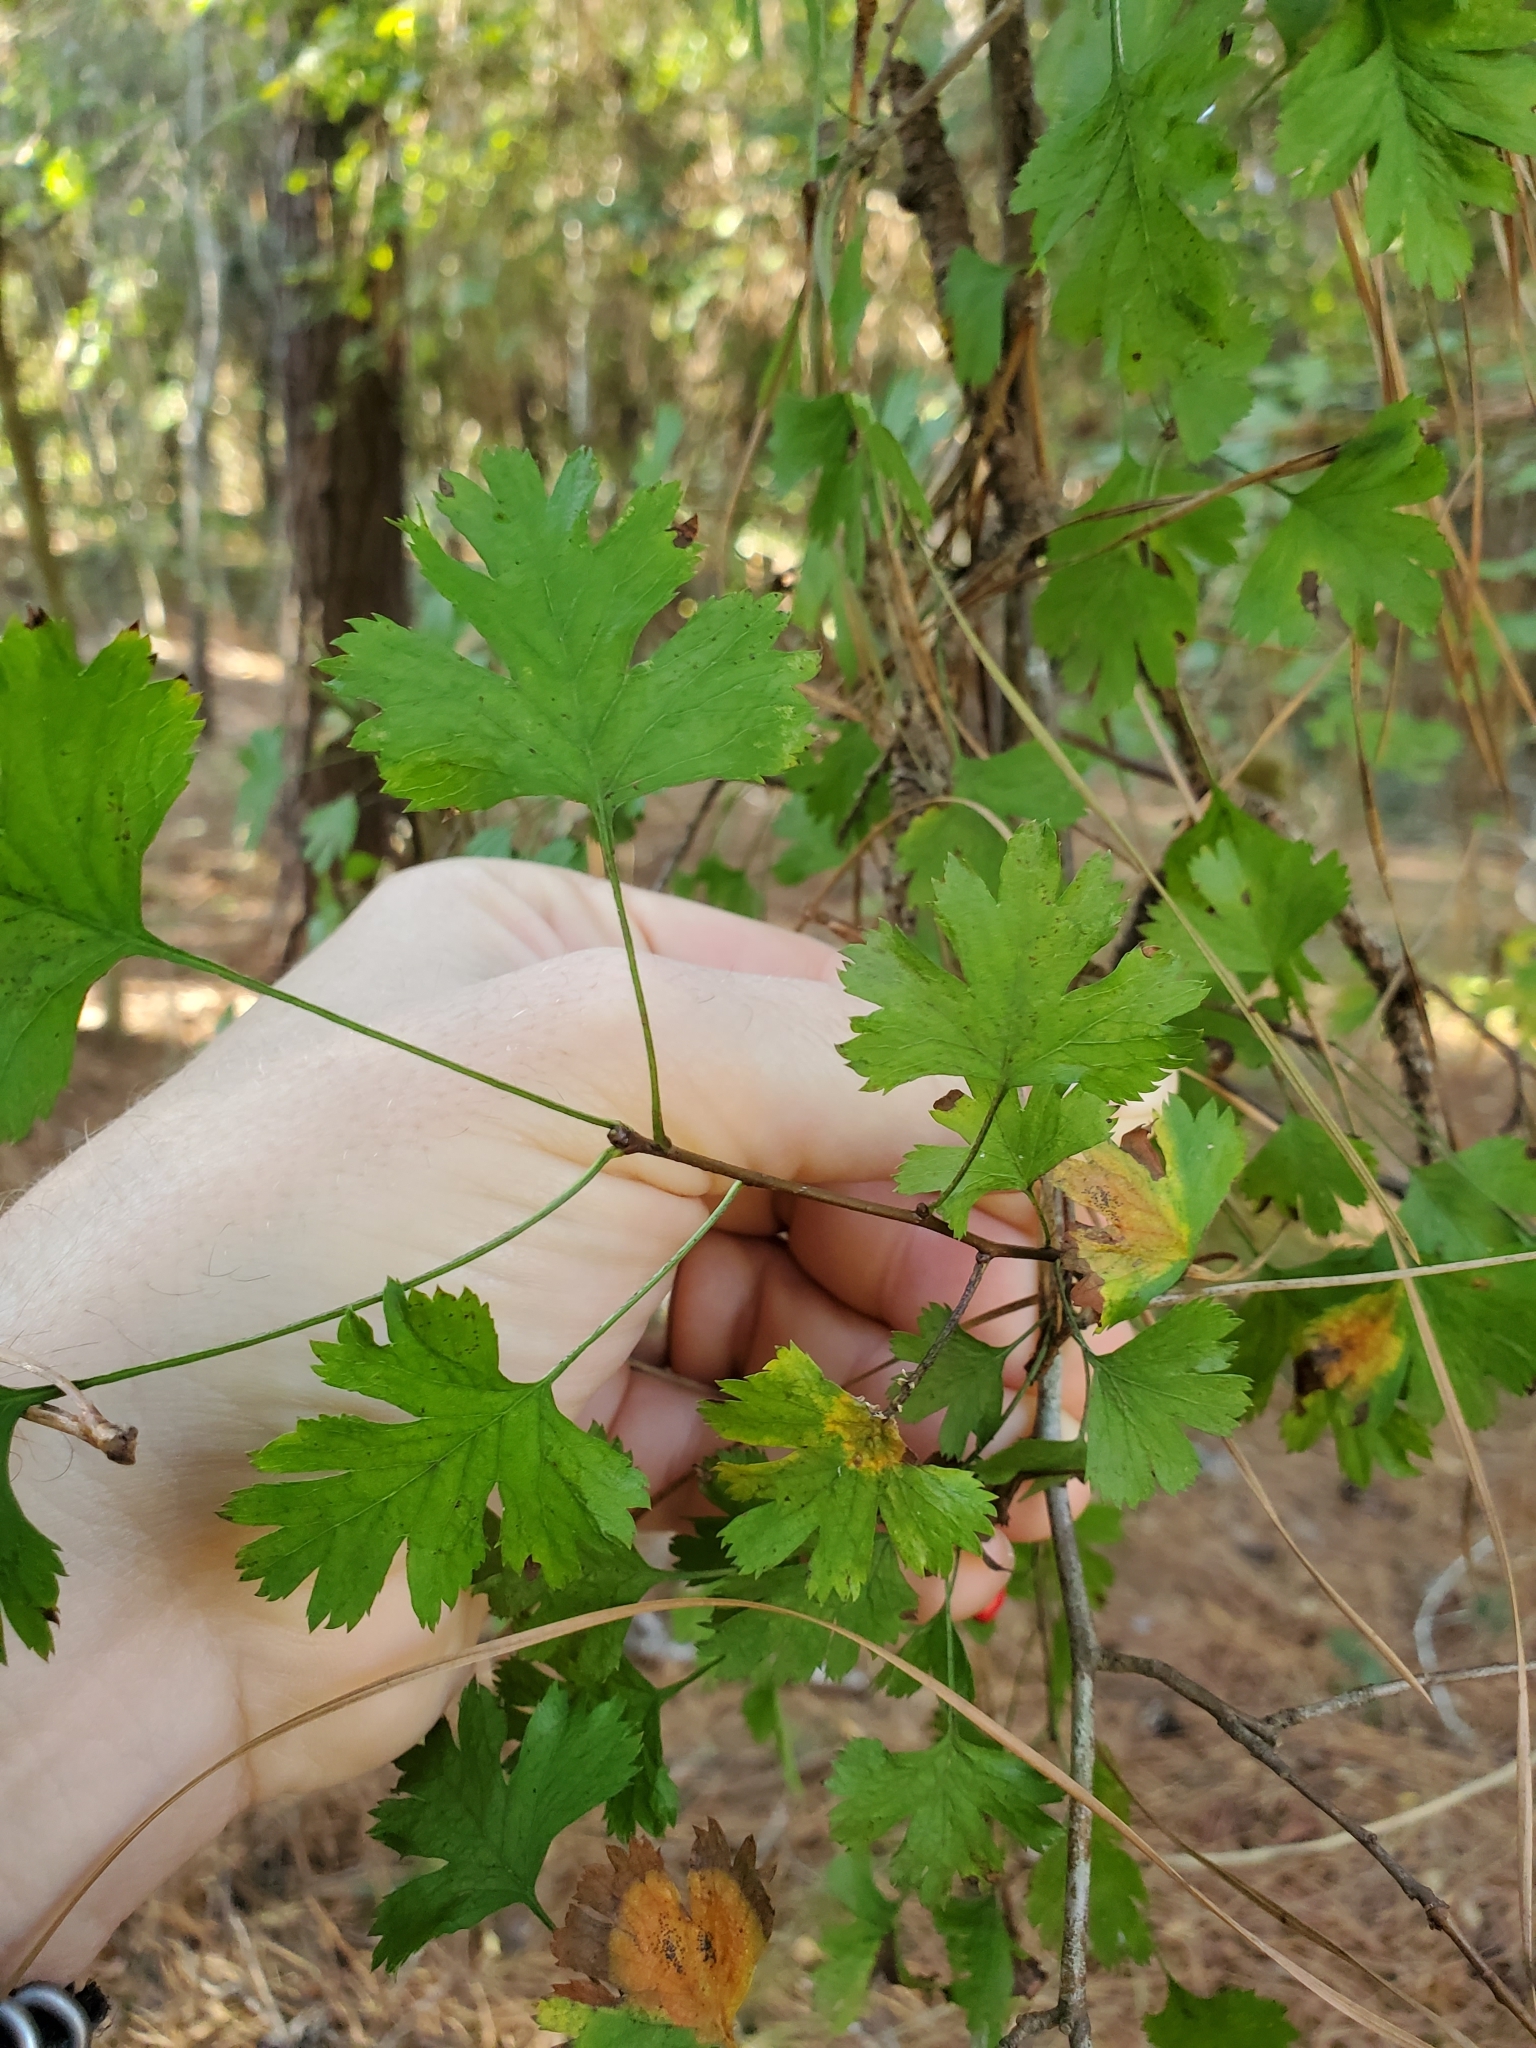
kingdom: Plantae
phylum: Tracheophyta
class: Magnoliopsida
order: Rosales
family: Rosaceae
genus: Crataegus
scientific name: Crataegus marshallii
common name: Parsley-hawthorn
